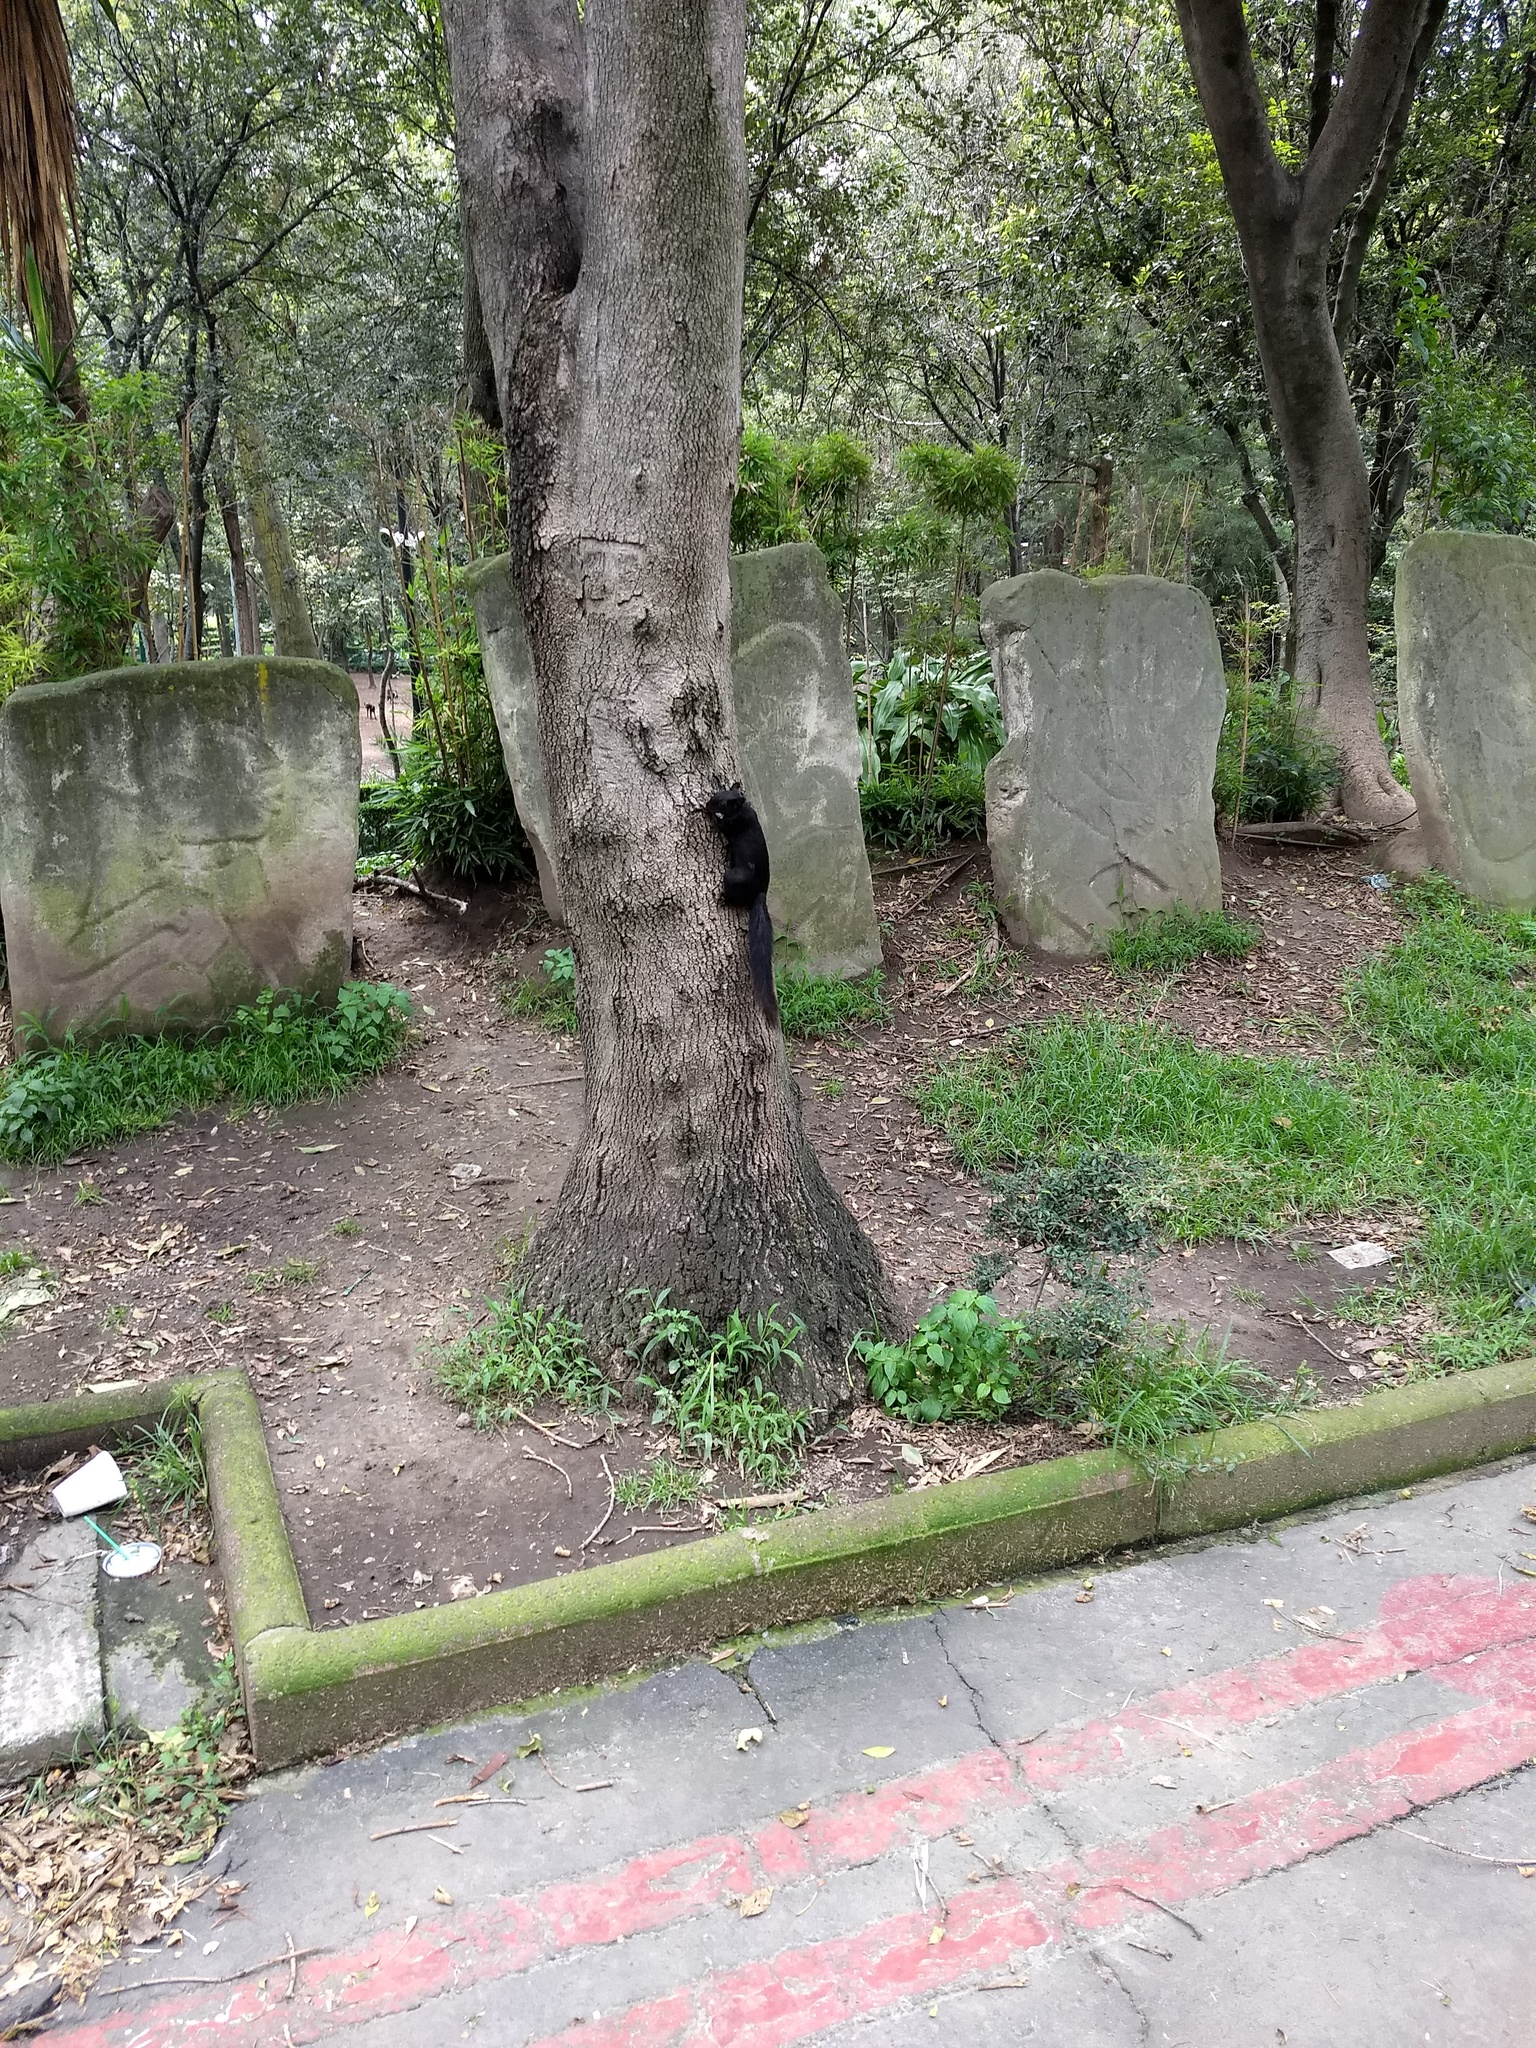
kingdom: Animalia
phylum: Chordata
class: Mammalia
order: Rodentia
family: Sciuridae
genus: Sciurus
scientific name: Sciurus aureogaster
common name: Red-bellied squirrel
